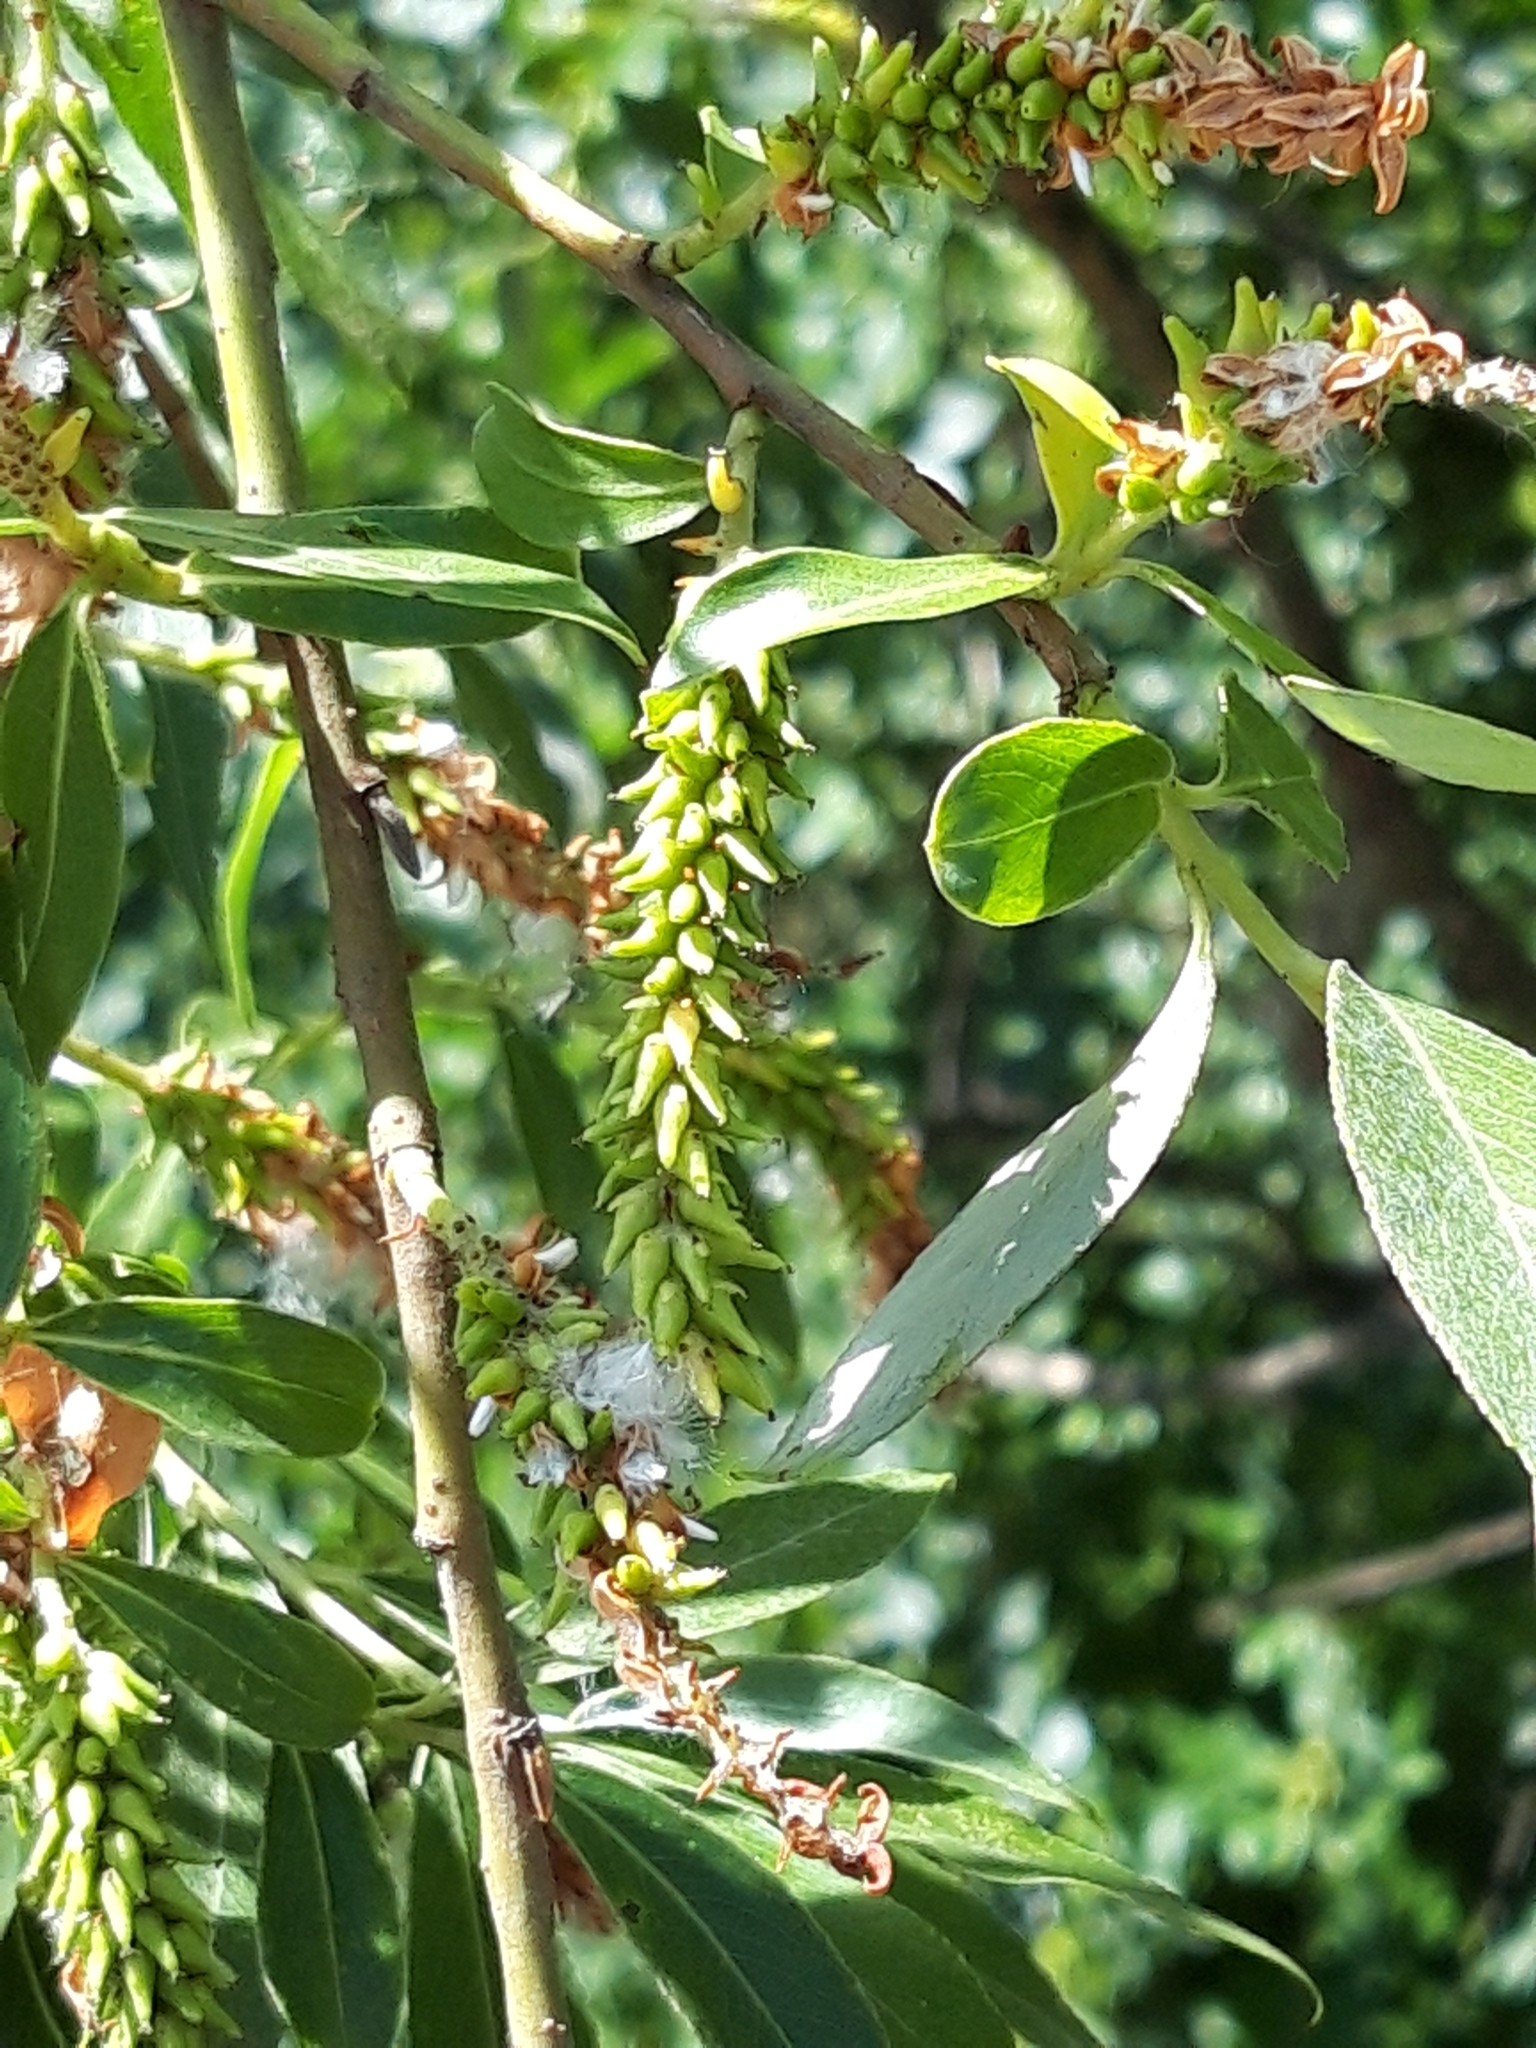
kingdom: Plantae
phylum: Tracheophyta
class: Magnoliopsida
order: Malpighiales
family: Salicaceae
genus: Salix
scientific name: Salix alba
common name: White willow
